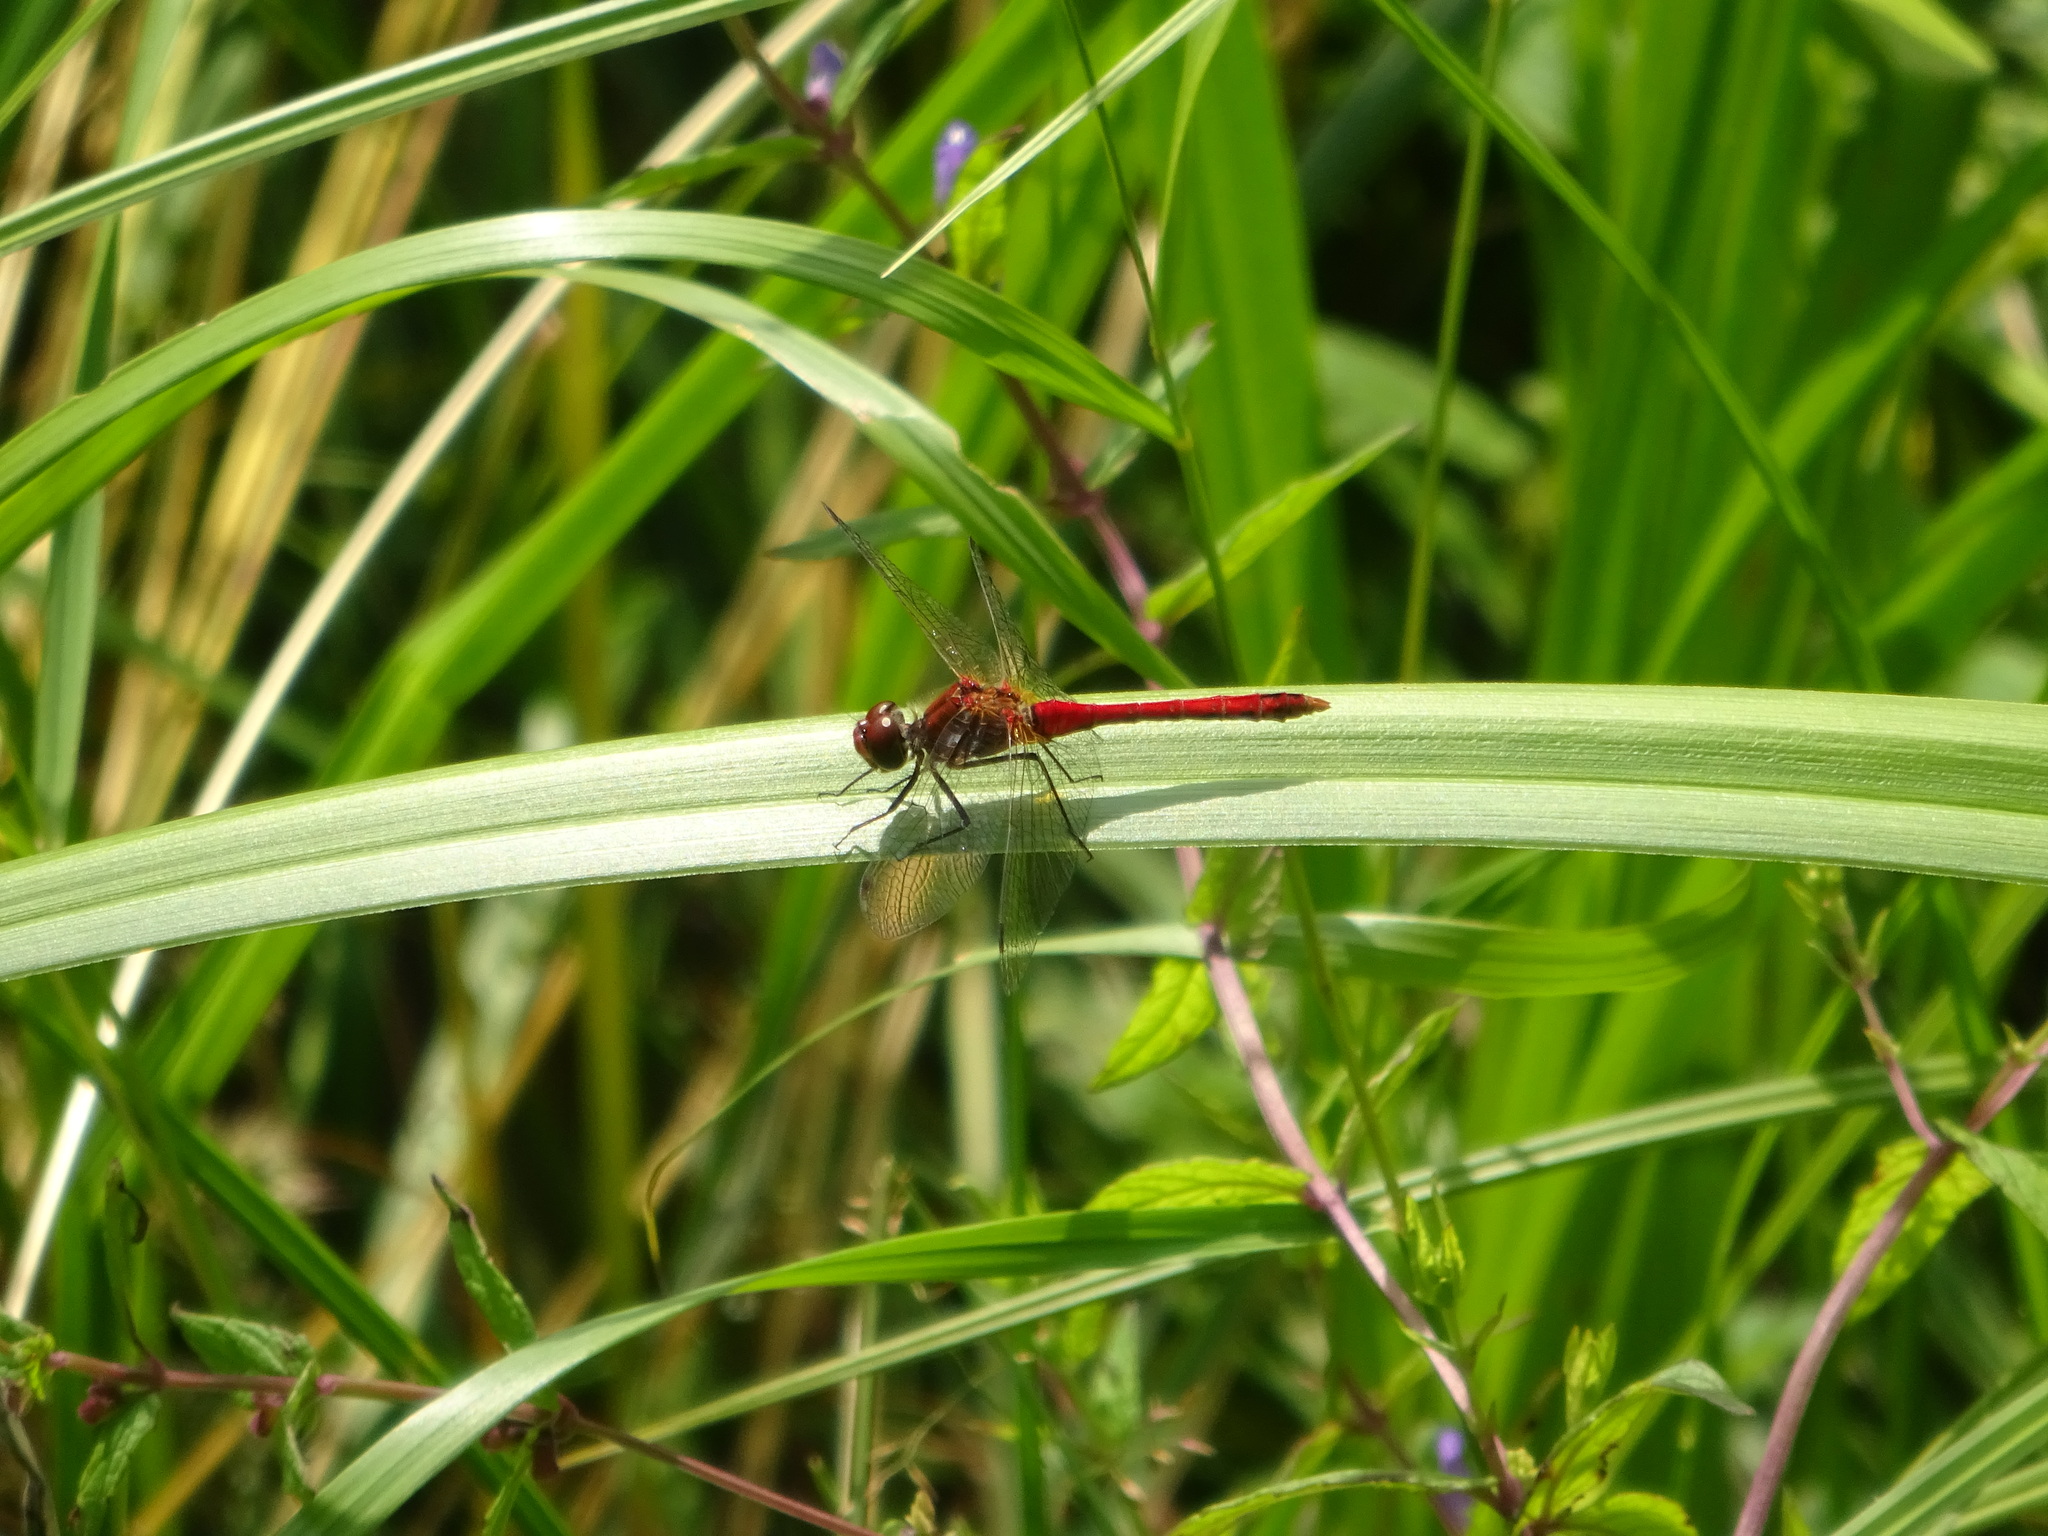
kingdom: Animalia
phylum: Arthropoda
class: Insecta
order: Odonata
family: Libellulidae
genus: Sympetrum
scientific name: Sympetrum sanguineum
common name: Ruddy darter
